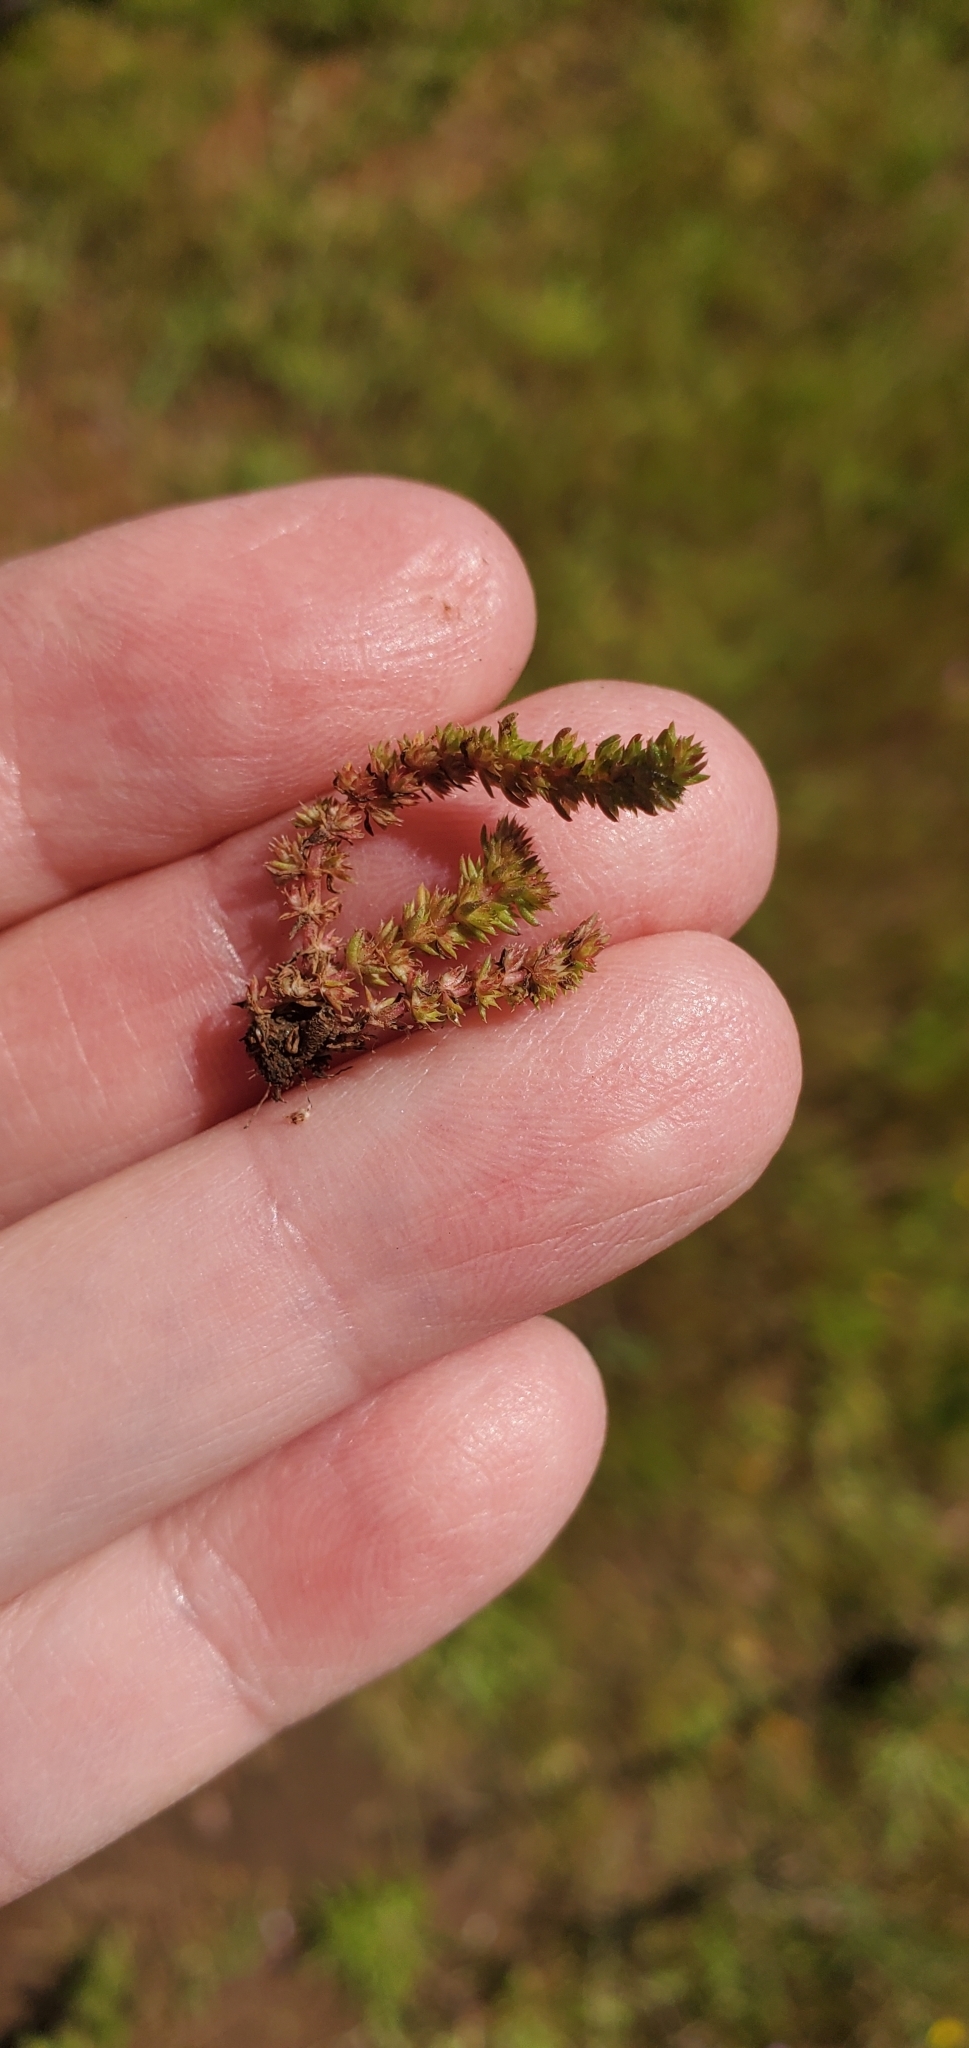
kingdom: Plantae
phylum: Tracheophyta
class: Magnoliopsida
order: Saxifragales
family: Crassulaceae
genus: Crassula
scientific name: Crassula tillaea
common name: Mossy stonecrop
